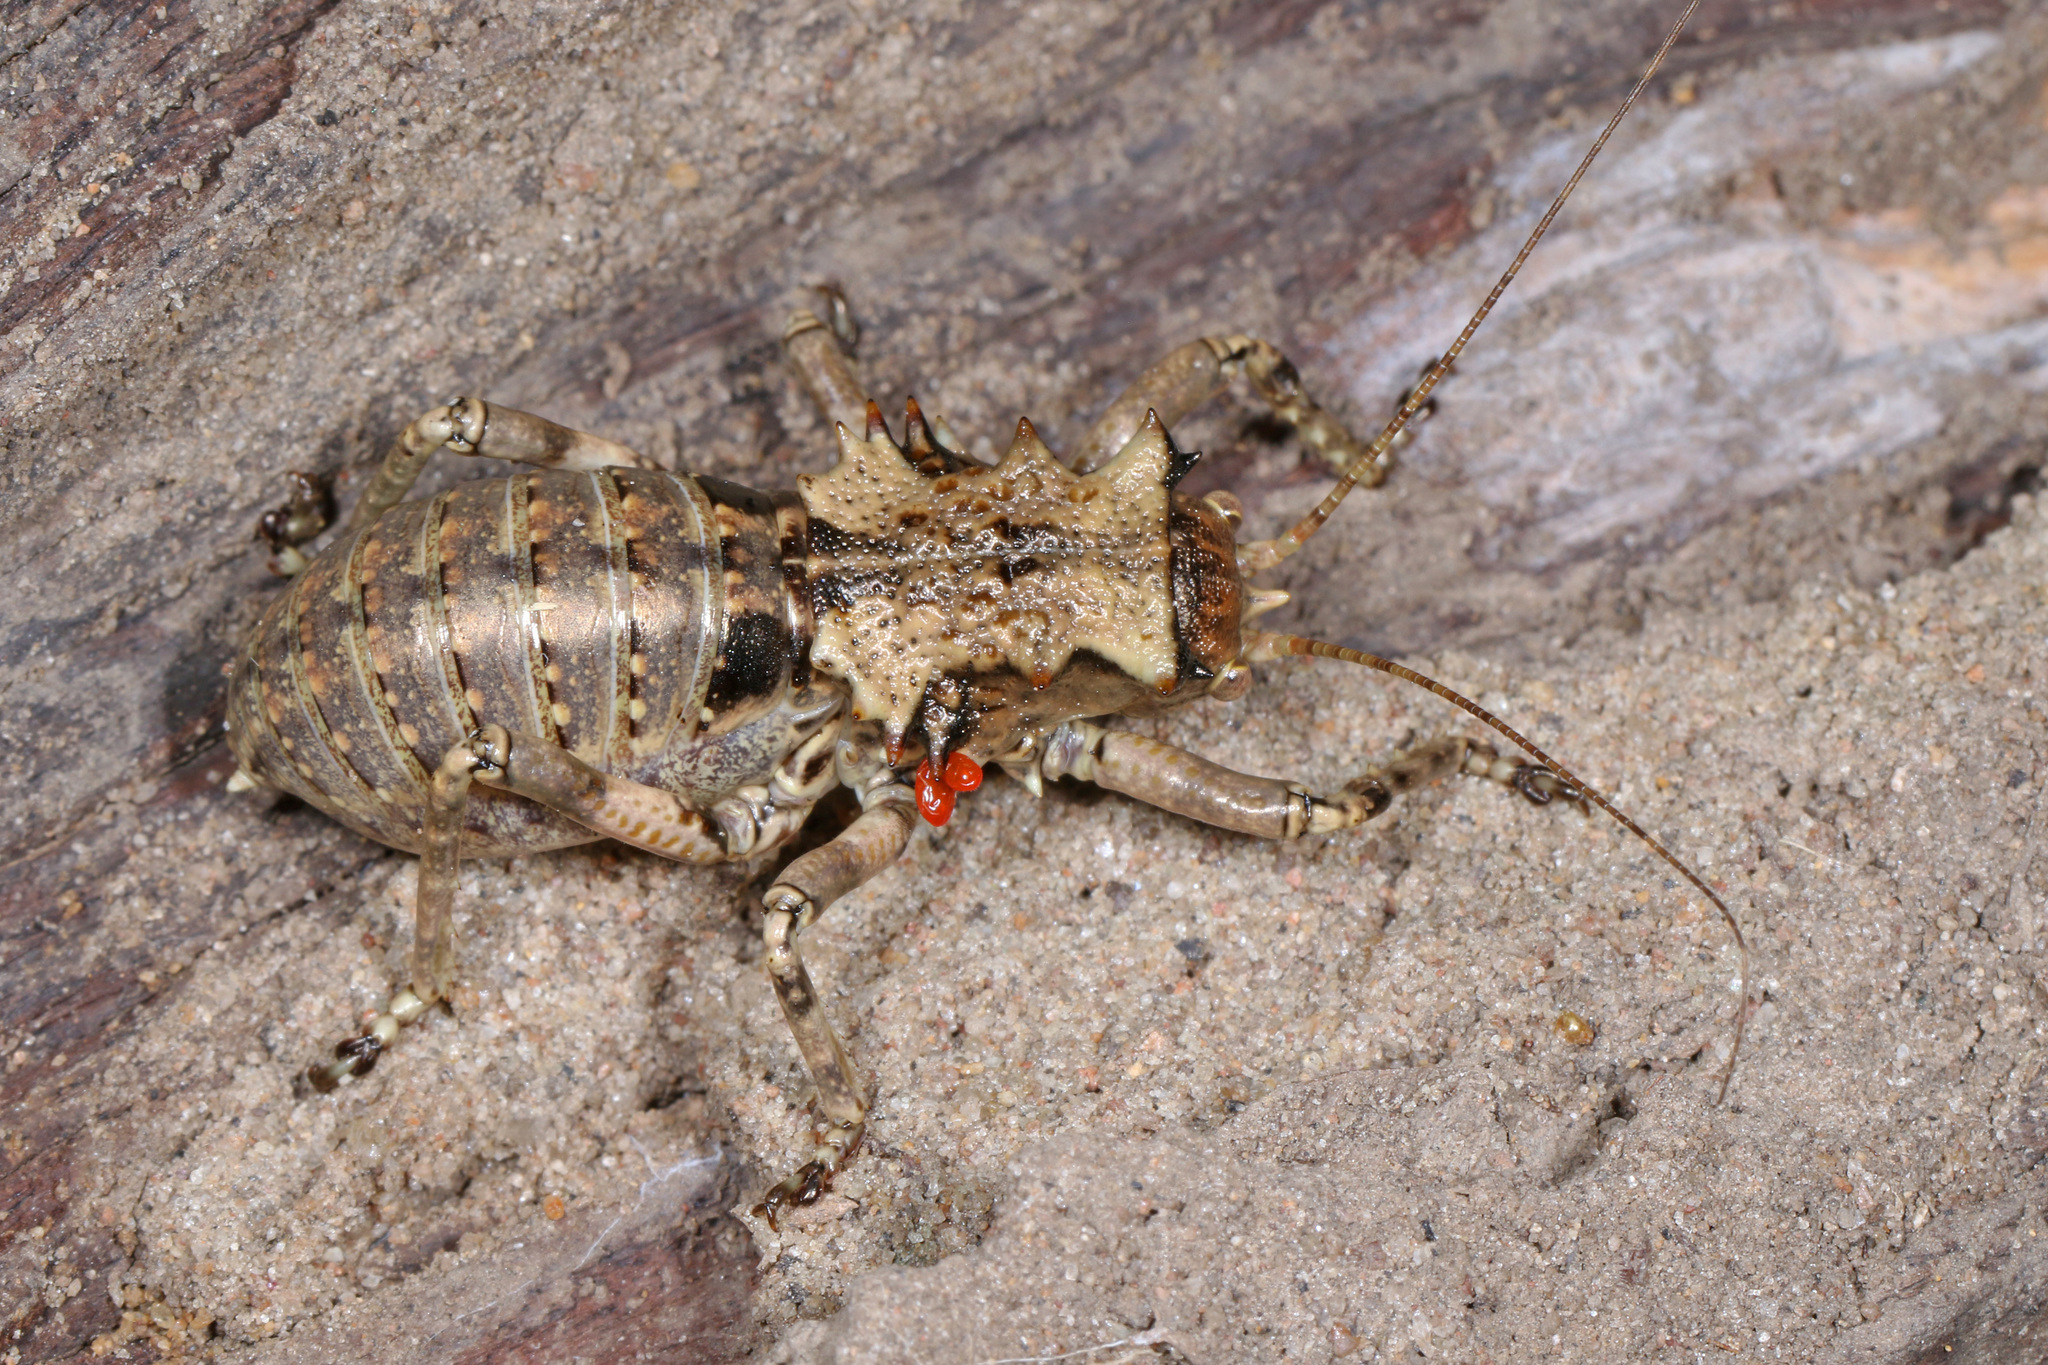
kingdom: Animalia
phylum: Arthropoda
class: Insecta
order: Orthoptera
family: Tettigoniidae
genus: Enyaliopsis
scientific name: Enyaliopsis iaculator
